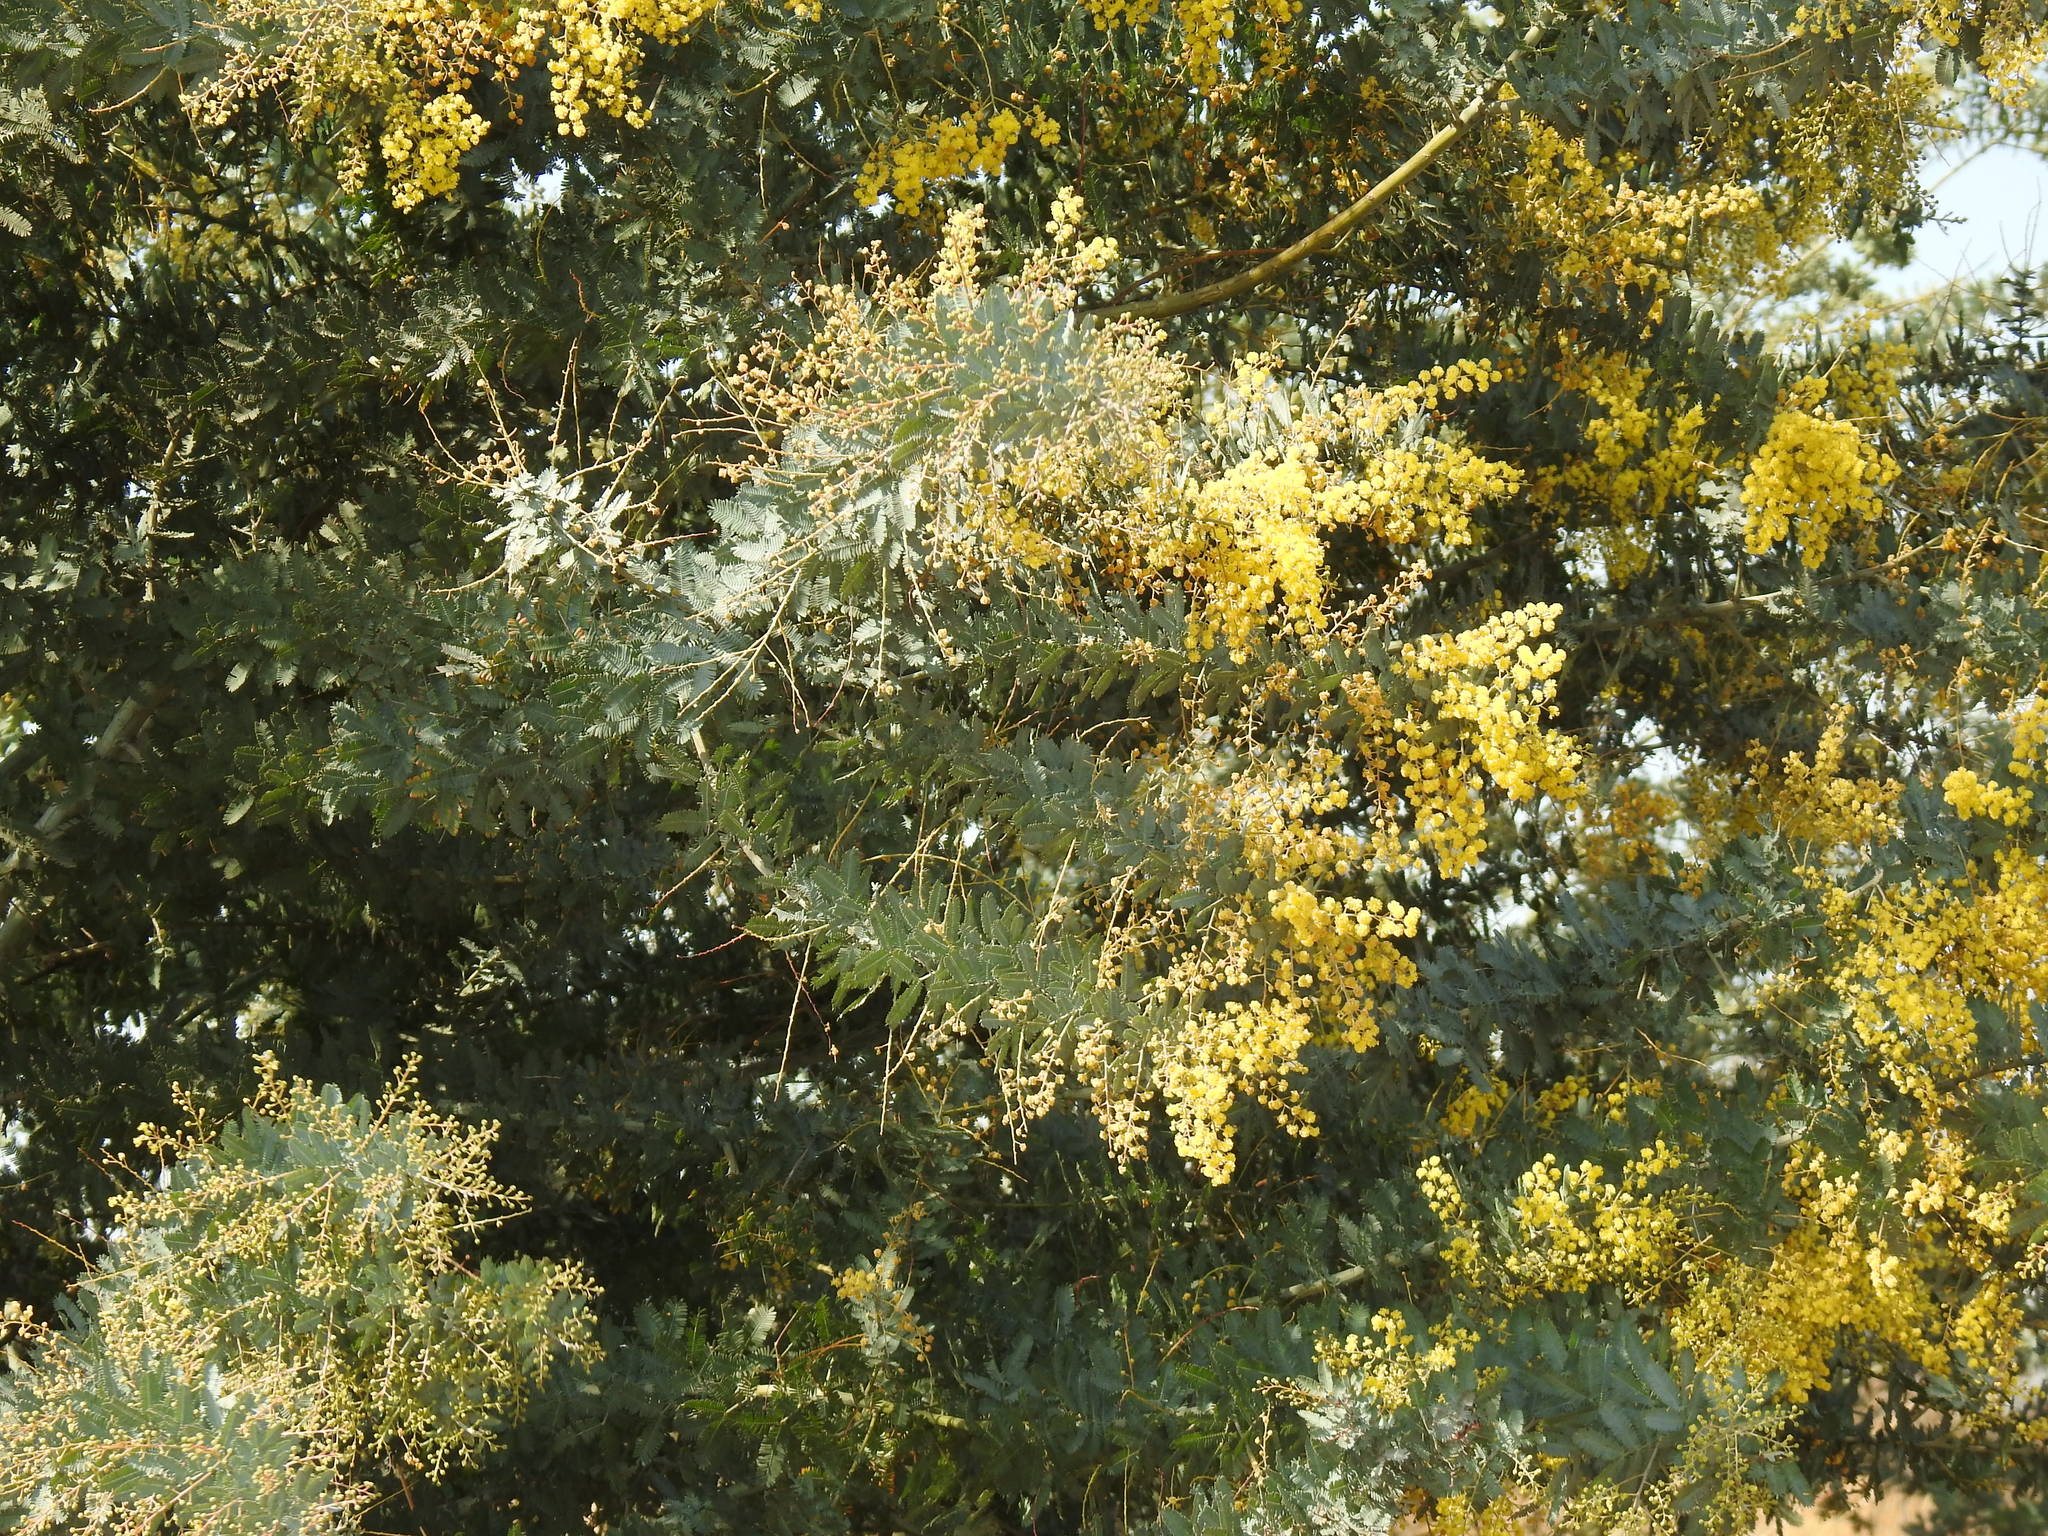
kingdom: Plantae
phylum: Tracheophyta
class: Magnoliopsida
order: Fabales
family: Fabaceae
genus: Acacia
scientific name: Acacia baileyana
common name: Cootamundra wattle
